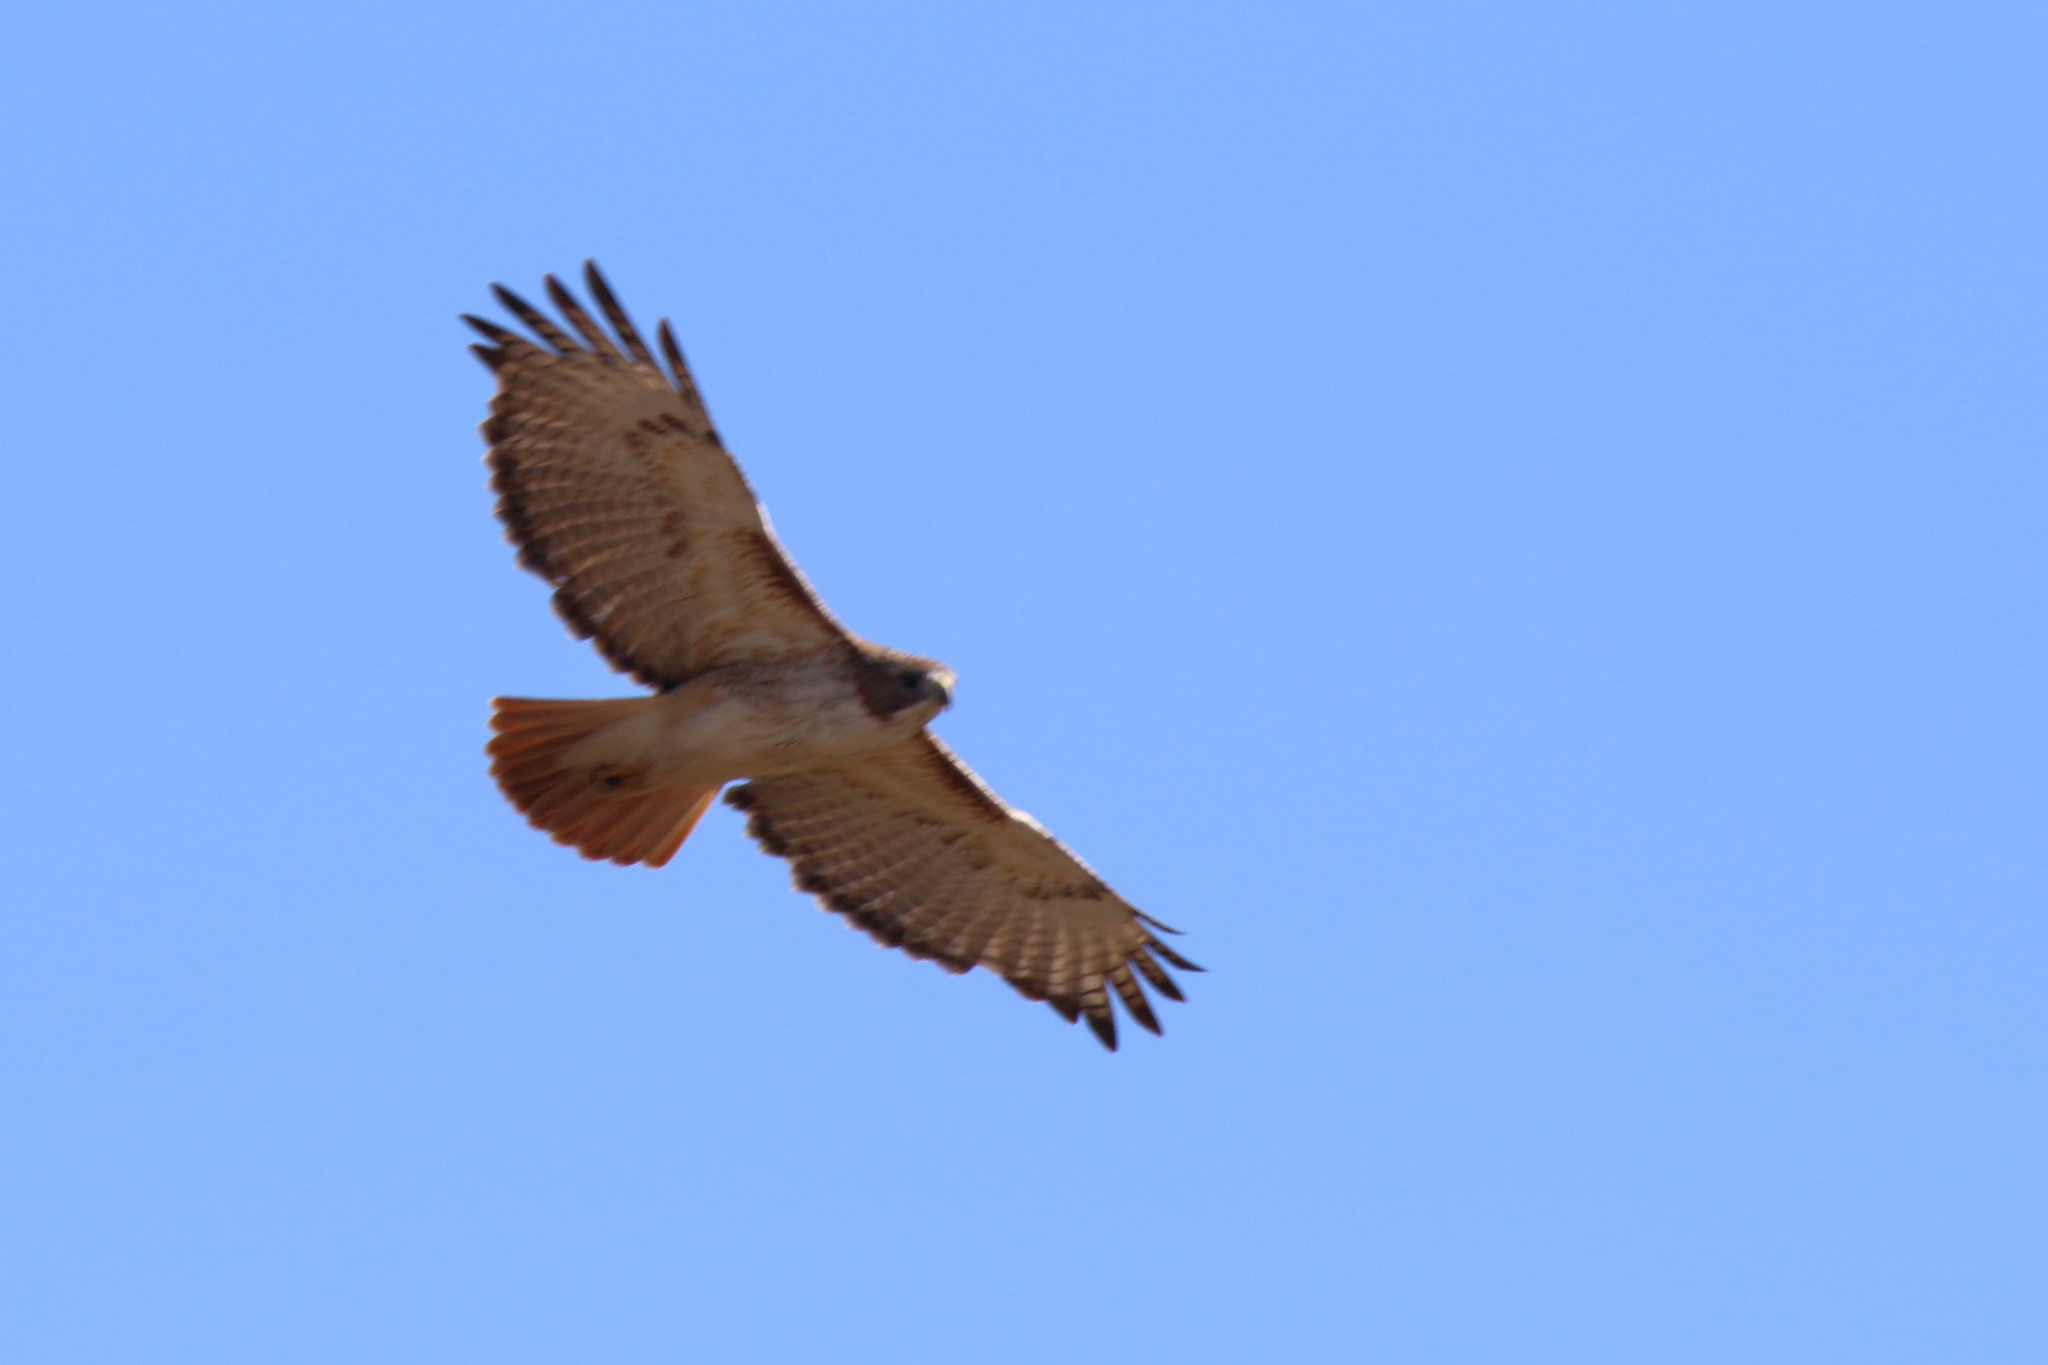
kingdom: Animalia
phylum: Chordata
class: Aves
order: Accipitriformes
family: Accipitridae
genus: Buteo
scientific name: Buteo jamaicensis
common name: Red-tailed hawk
